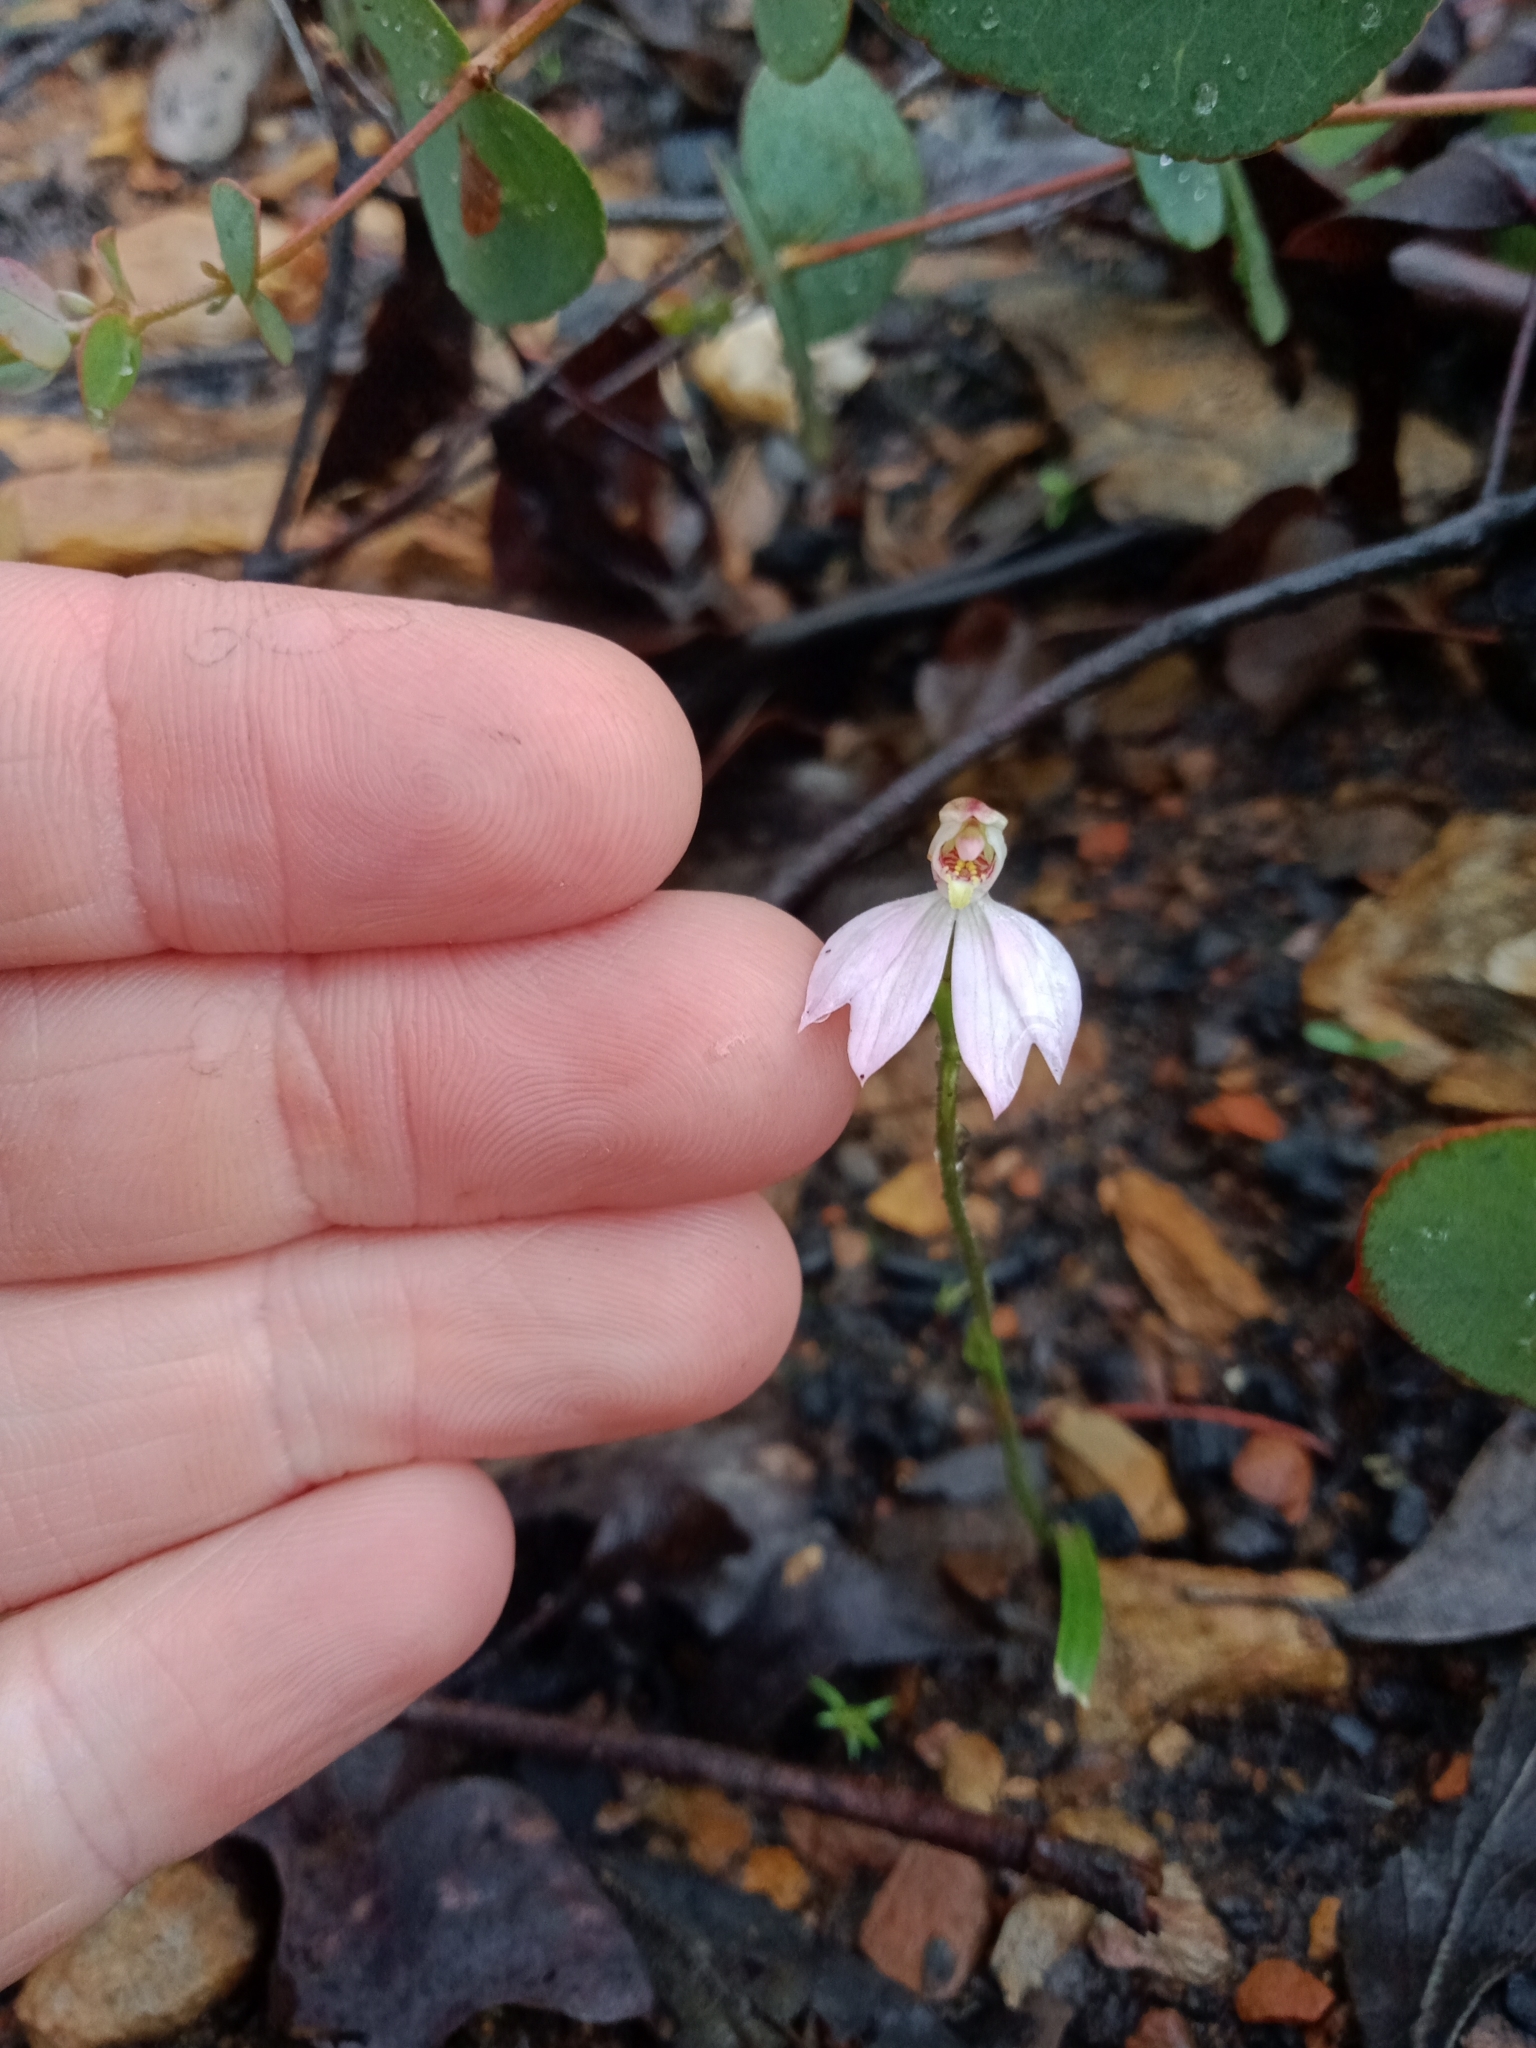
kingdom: Plantae
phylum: Tracheophyta
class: Liliopsida
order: Asparagales
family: Orchidaceae
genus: Caladenia
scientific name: Caladenia carnea
